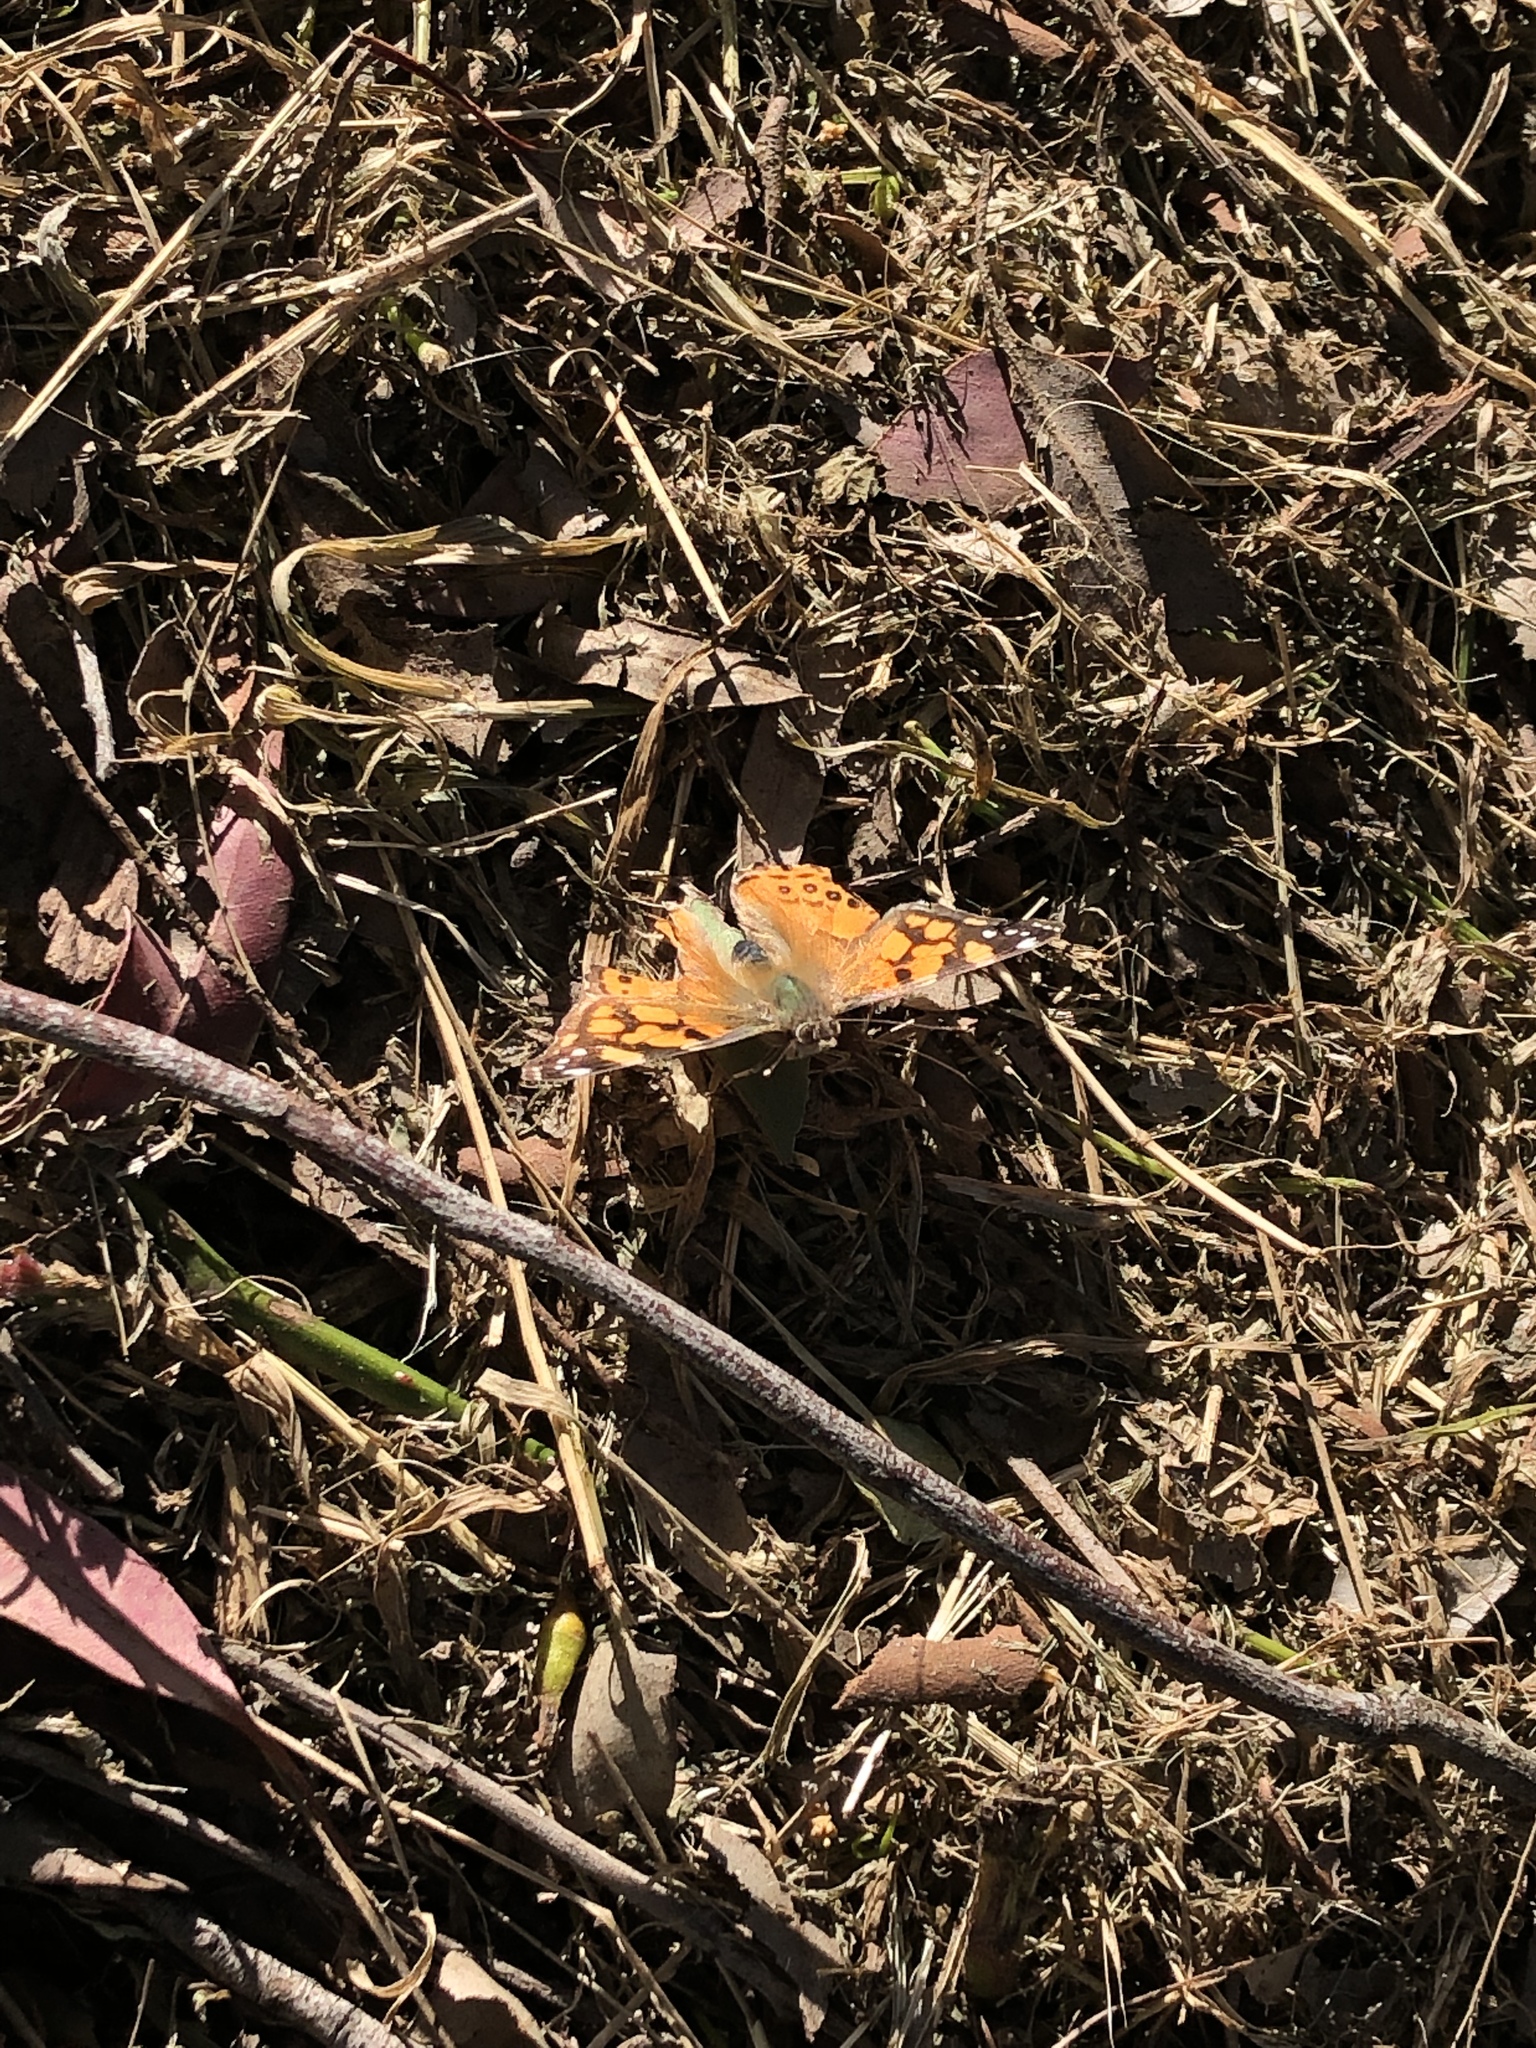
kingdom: Animalia
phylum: Arthropoda
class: Insecta
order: Lepidoptera
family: Nymphalidae
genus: Vanessa
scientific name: Vanessa annabella
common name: West coast lady
